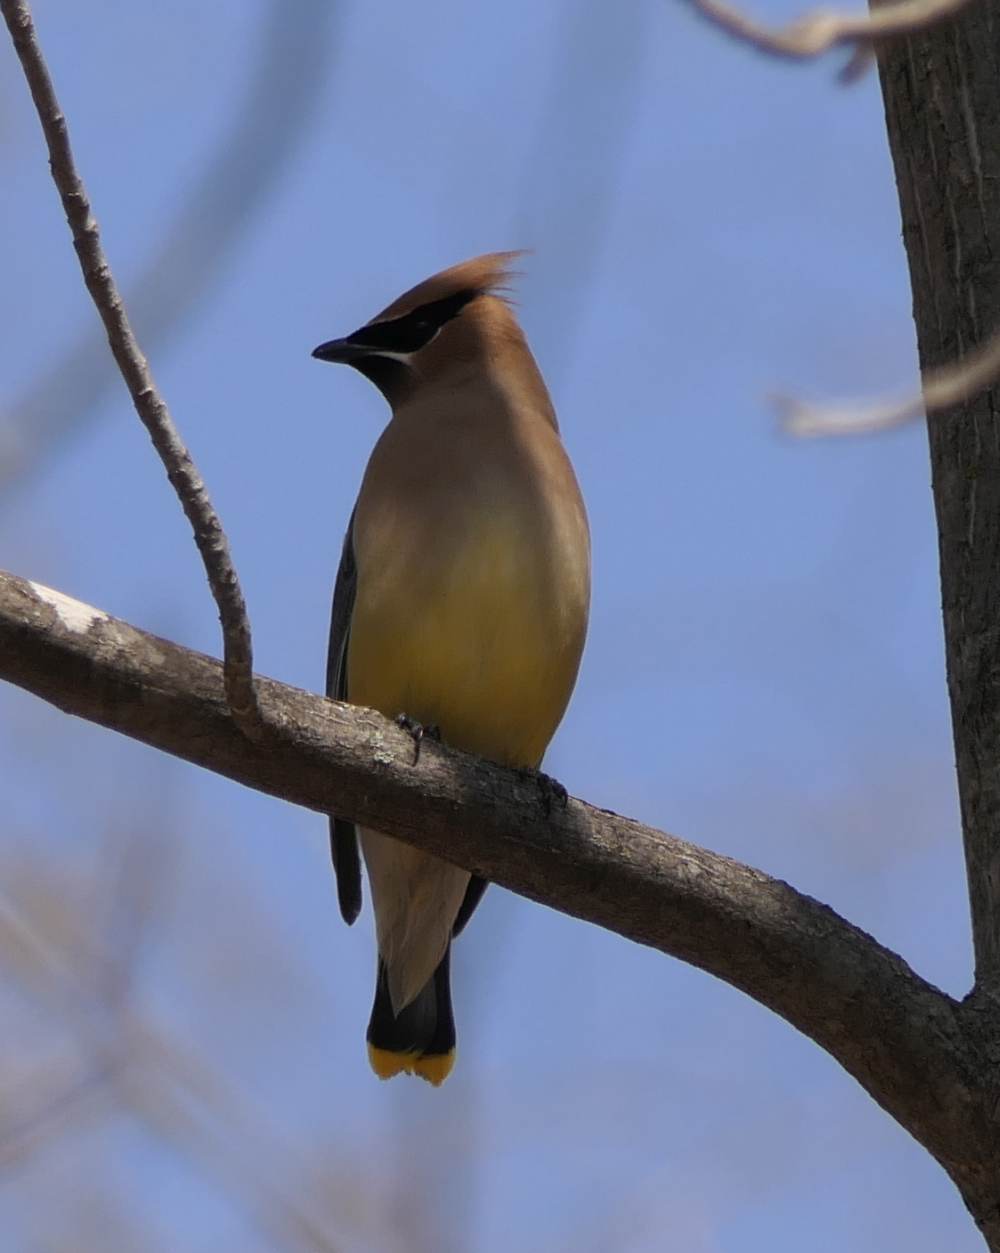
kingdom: Animalia
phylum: Chordata
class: Aves
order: Passeriformes
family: Bombycillidae
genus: Bombycilla
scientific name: Bombycilla cedrorum
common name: Cedar waxwing
